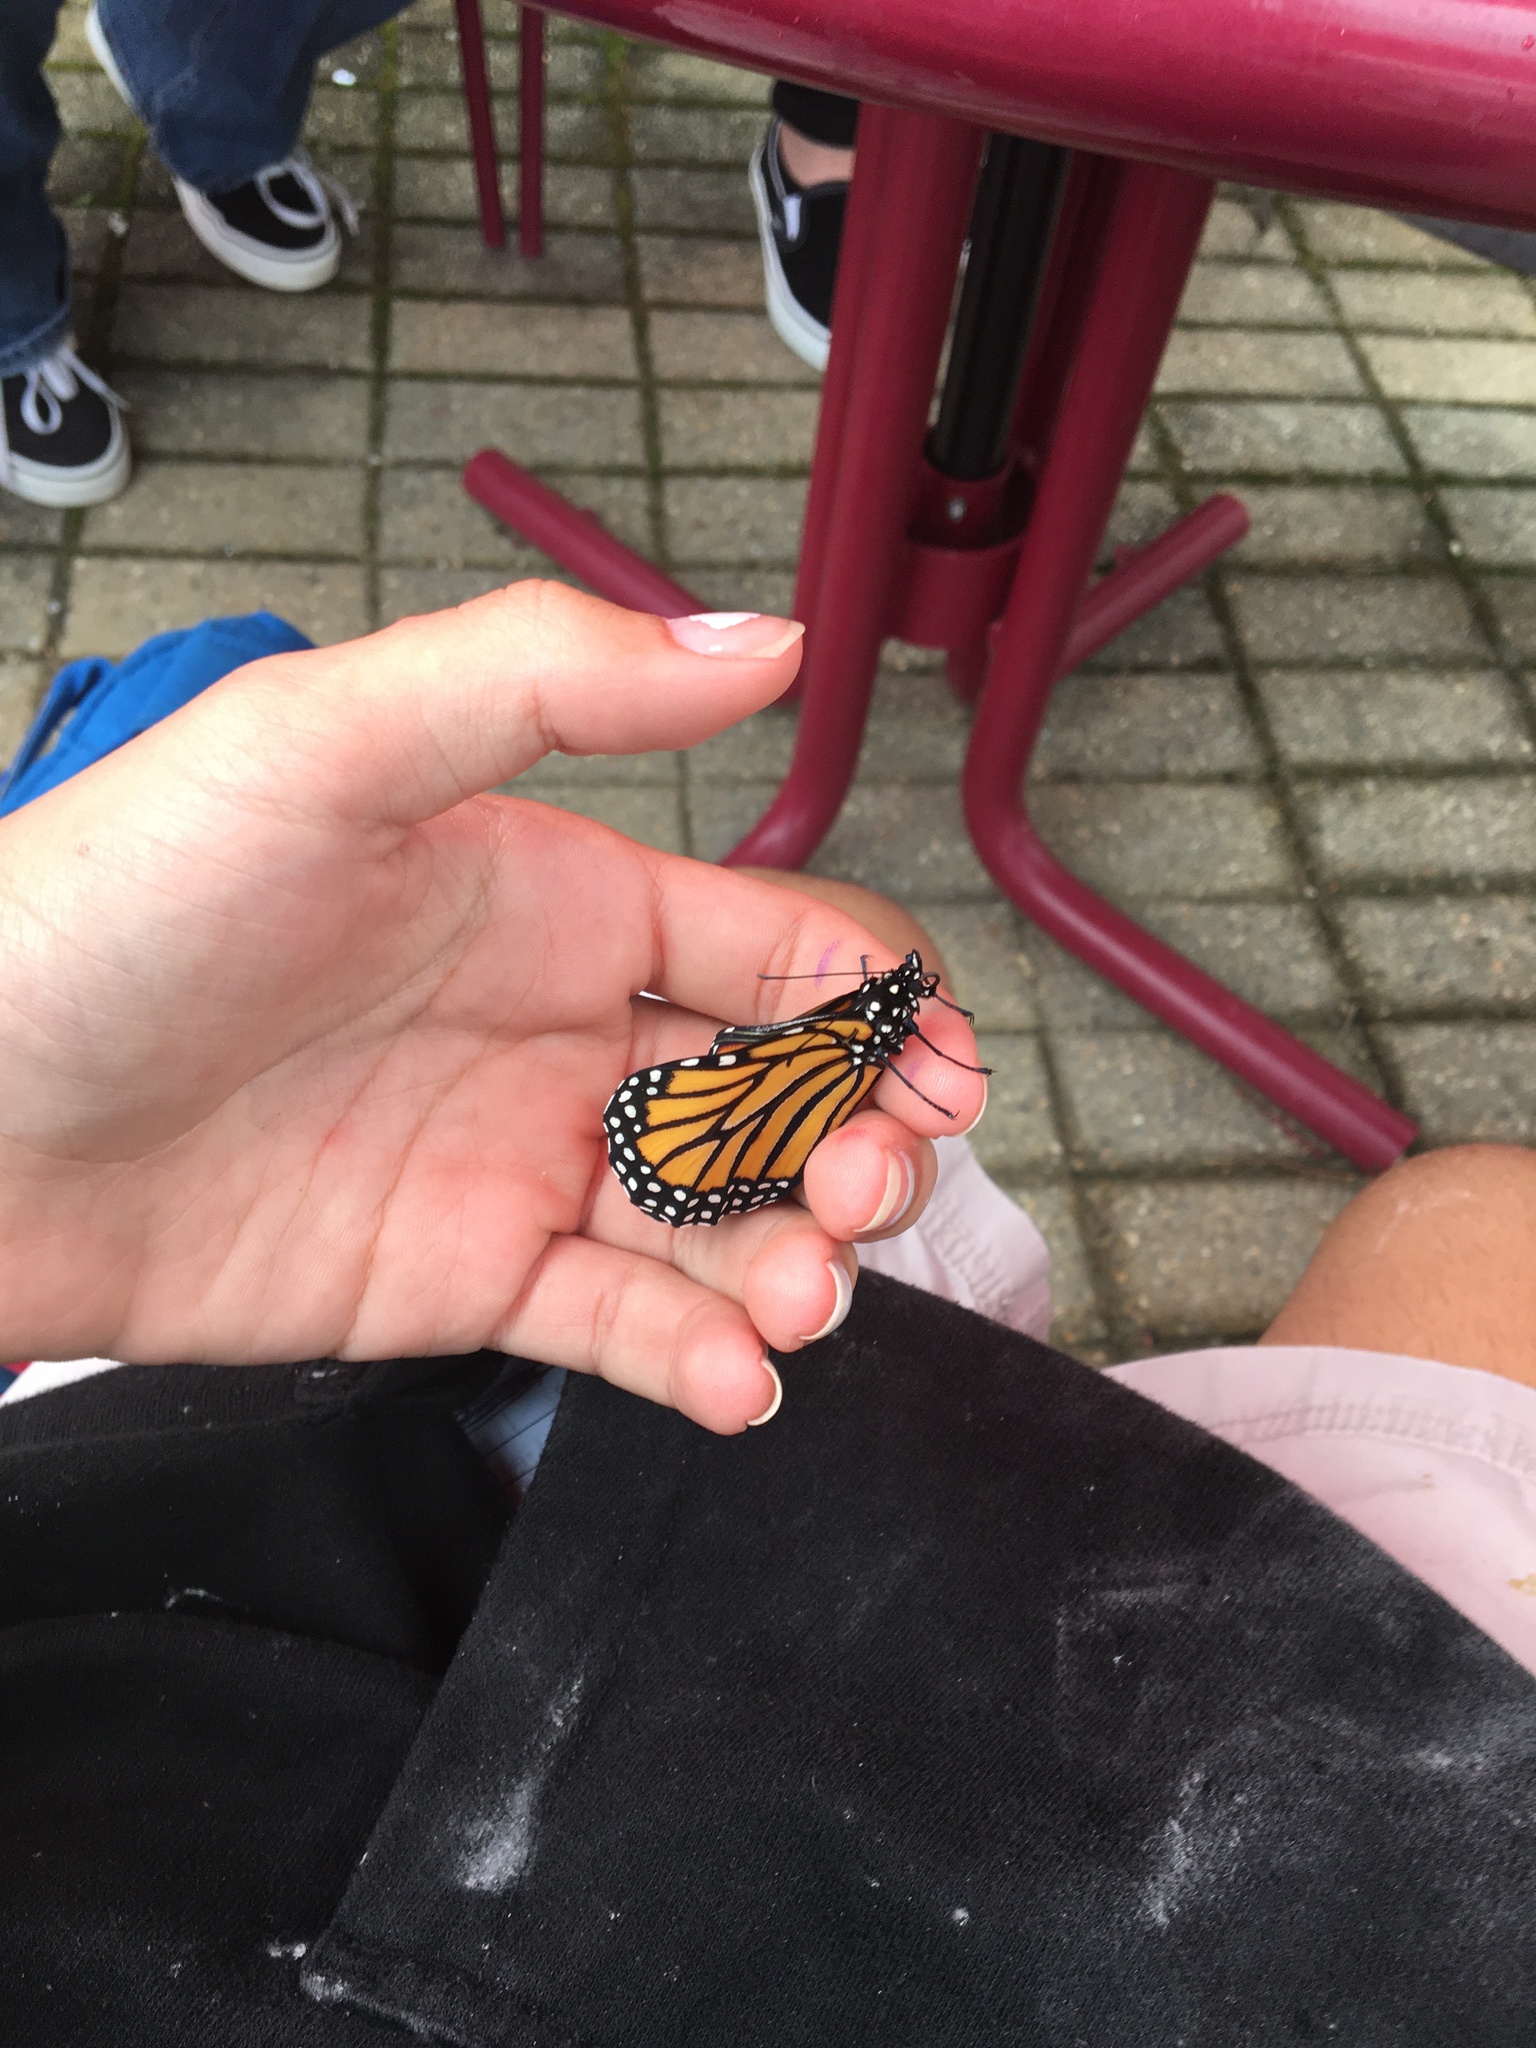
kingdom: Animalia
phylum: Arthropoda
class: Insecta
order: Lepidoptera
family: Nymphalidae
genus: Danaus
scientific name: Danaus plexippus
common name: Monarch
